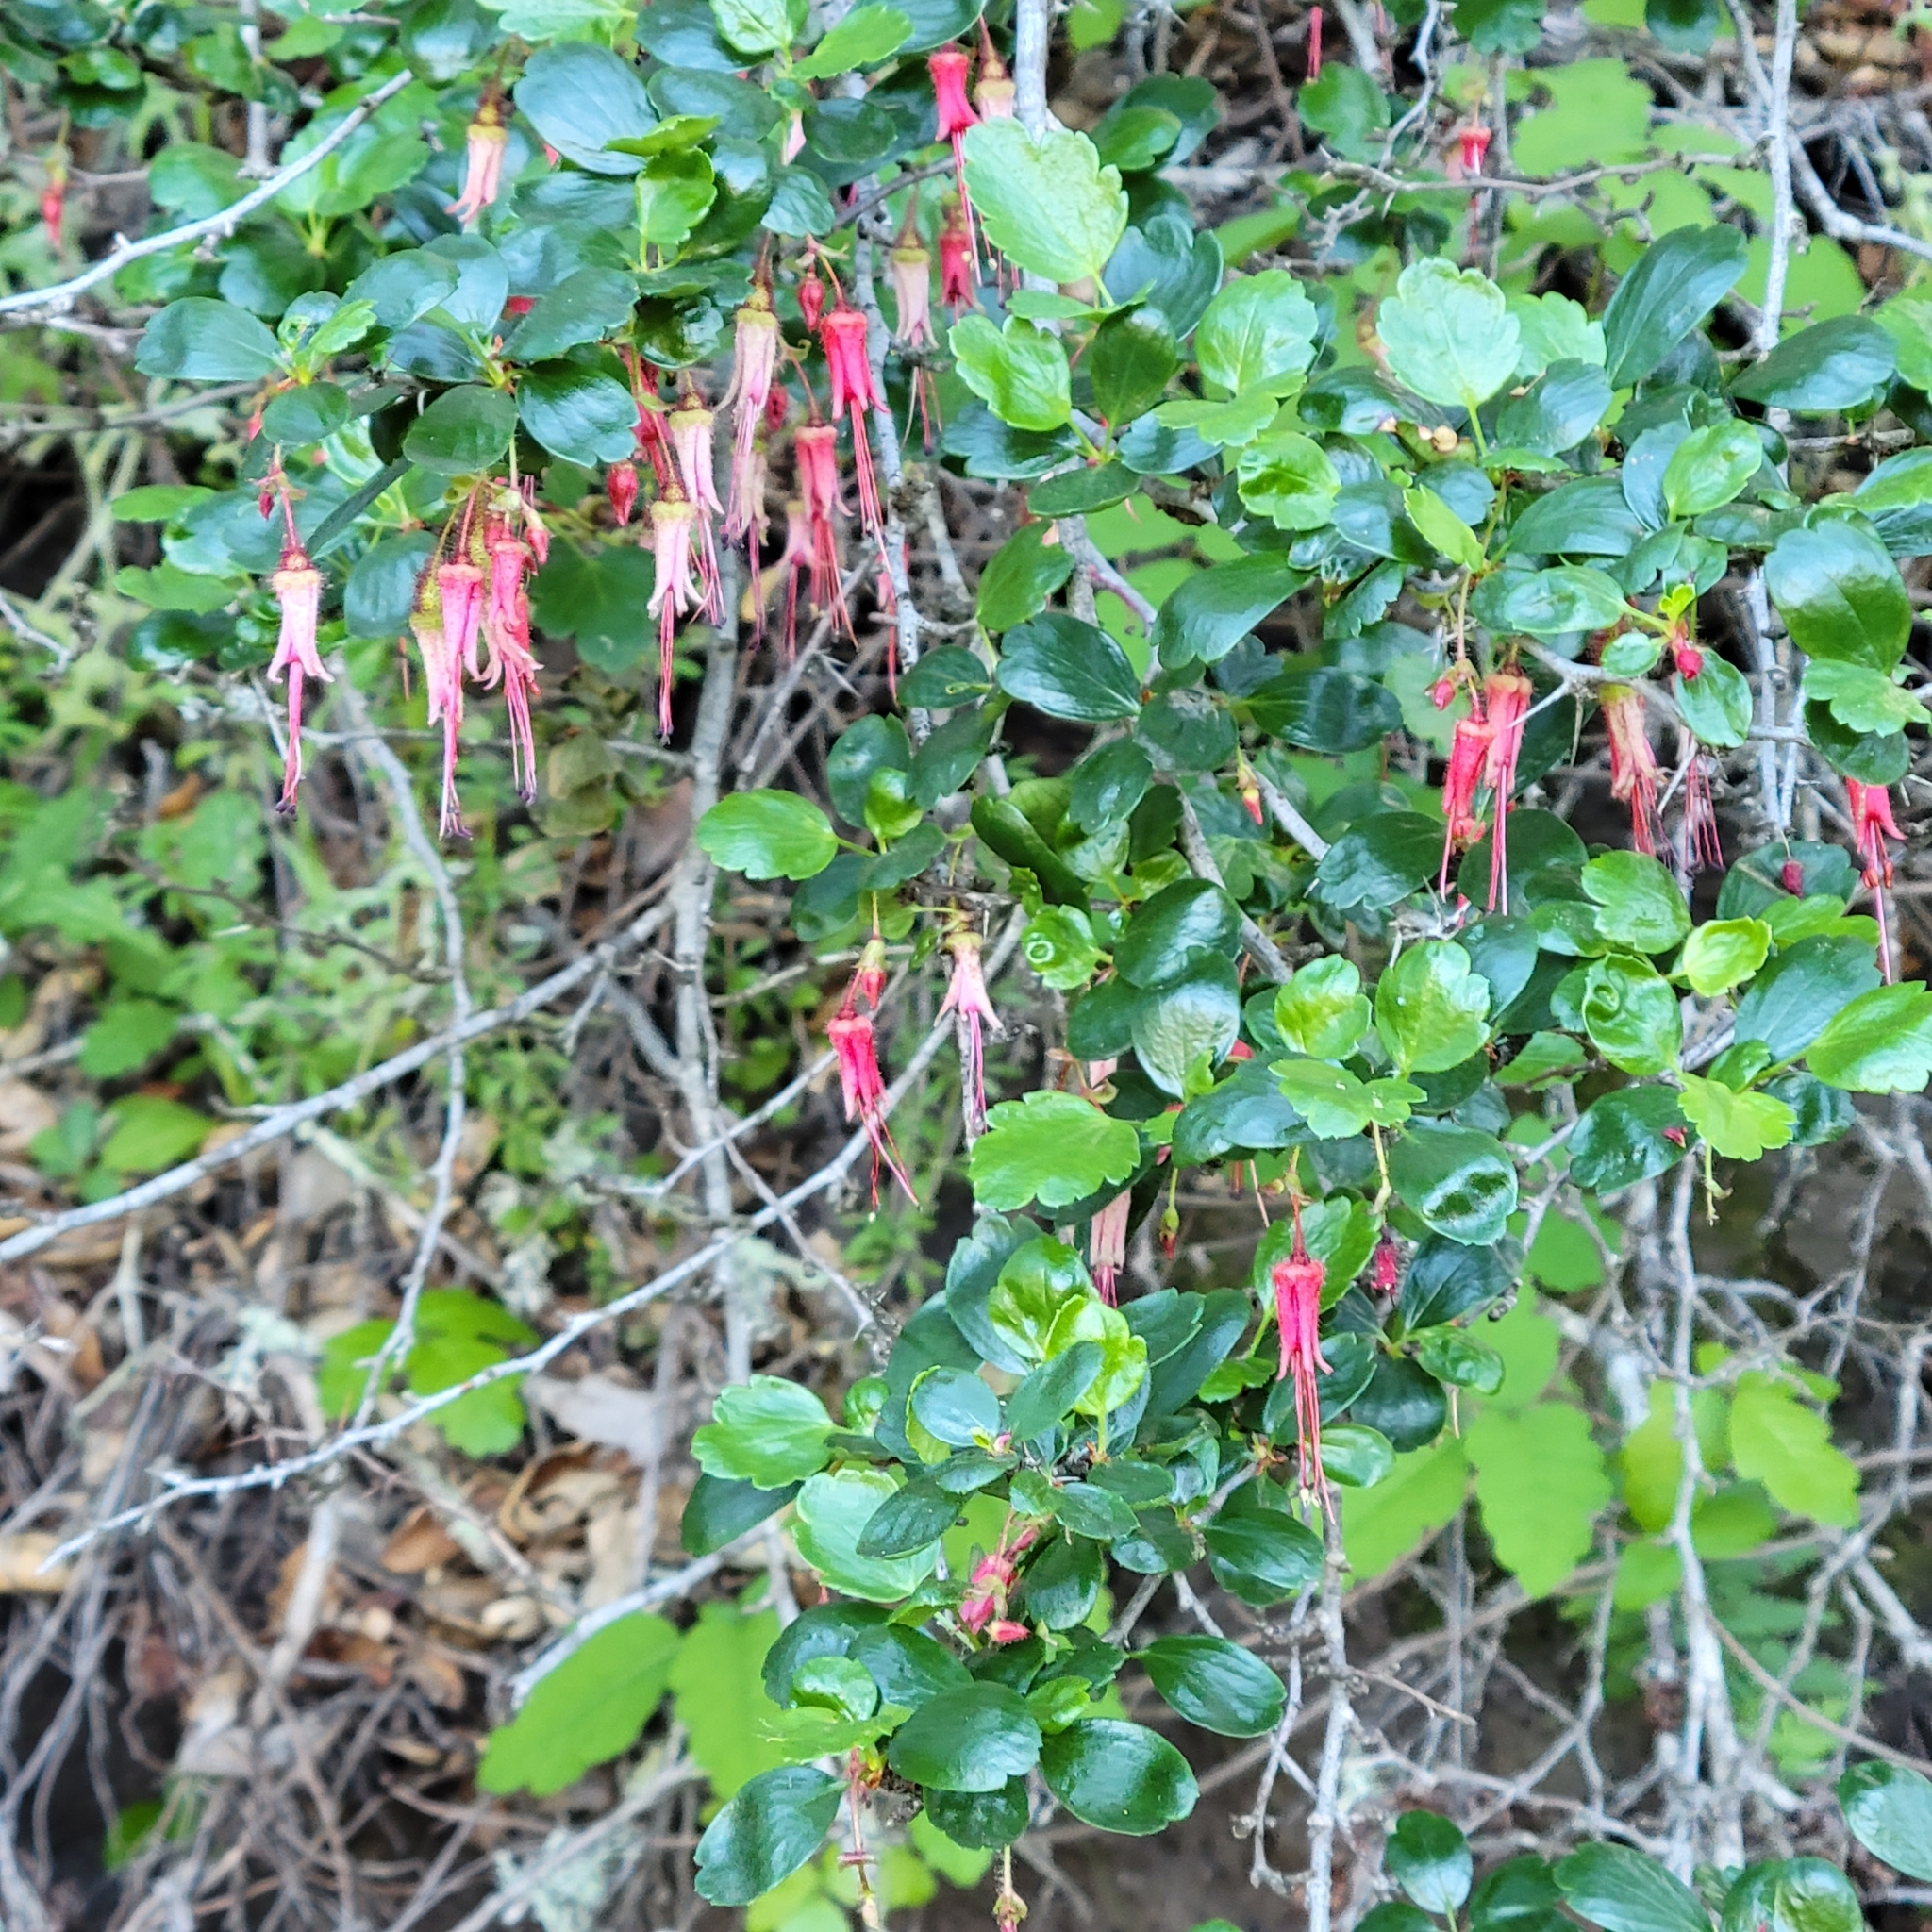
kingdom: Plantae
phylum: Tracheophyta
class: Magnoliopsida
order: Saxifragales
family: Grossulariaceae
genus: Ribes
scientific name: Ribes speciosum
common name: Fuchsia-flower gooseberry
